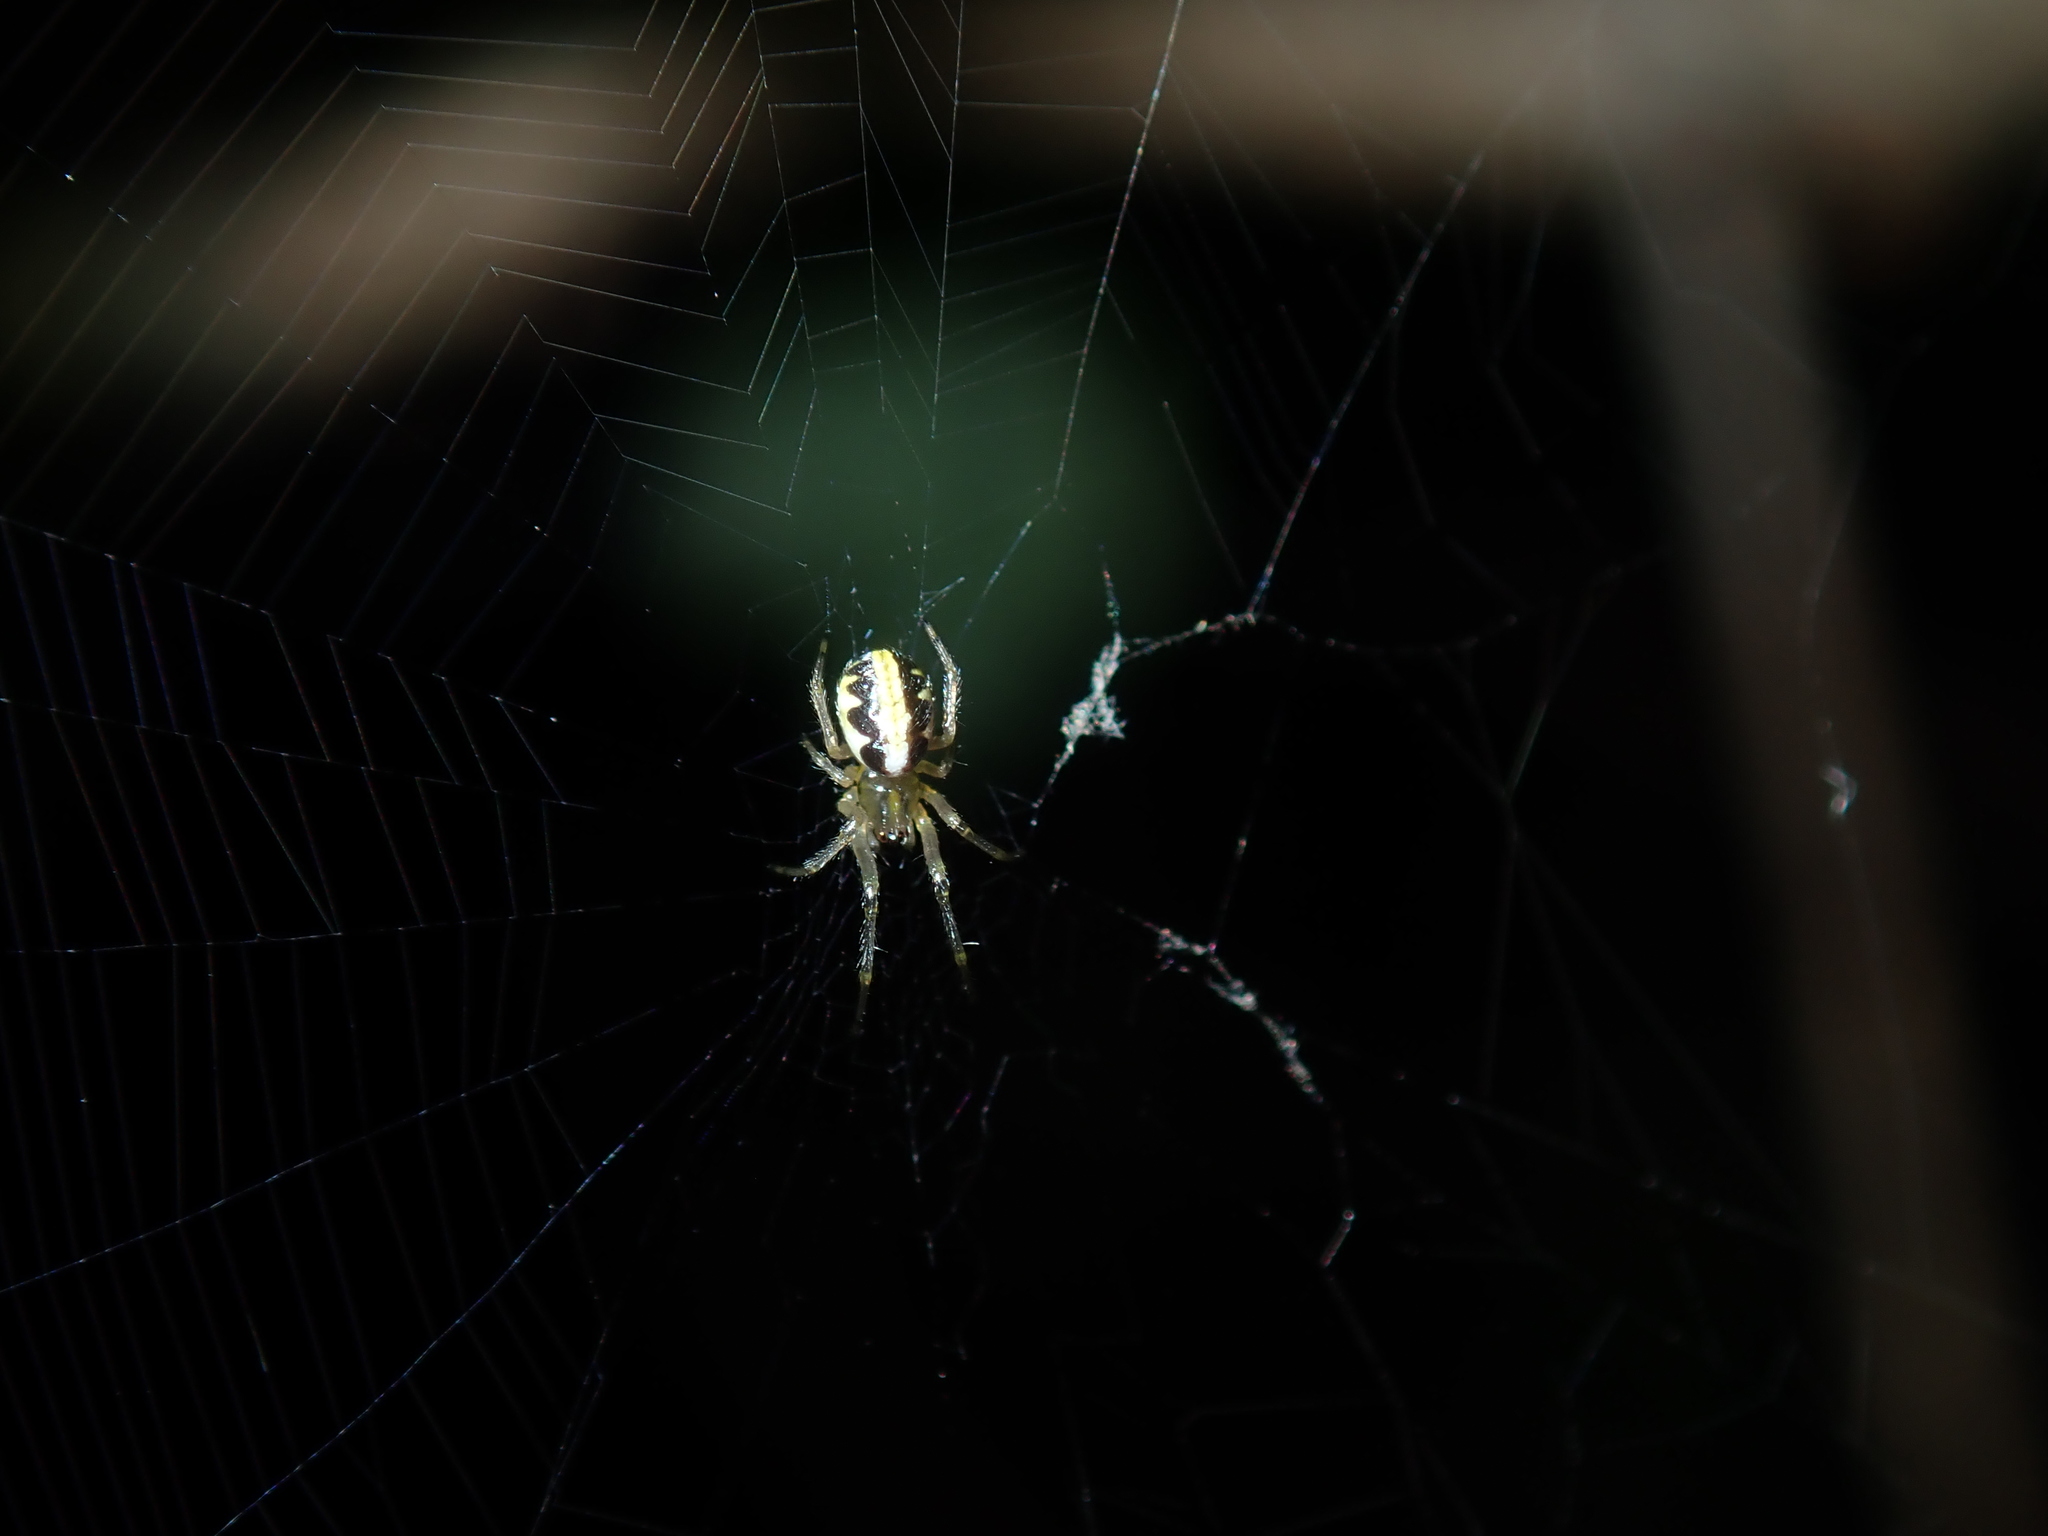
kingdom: Animalia
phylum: Arthropoda
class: Arachnida
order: Araneae
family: Araneidae
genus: Phonognatha
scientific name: Phonognatha graeffei
